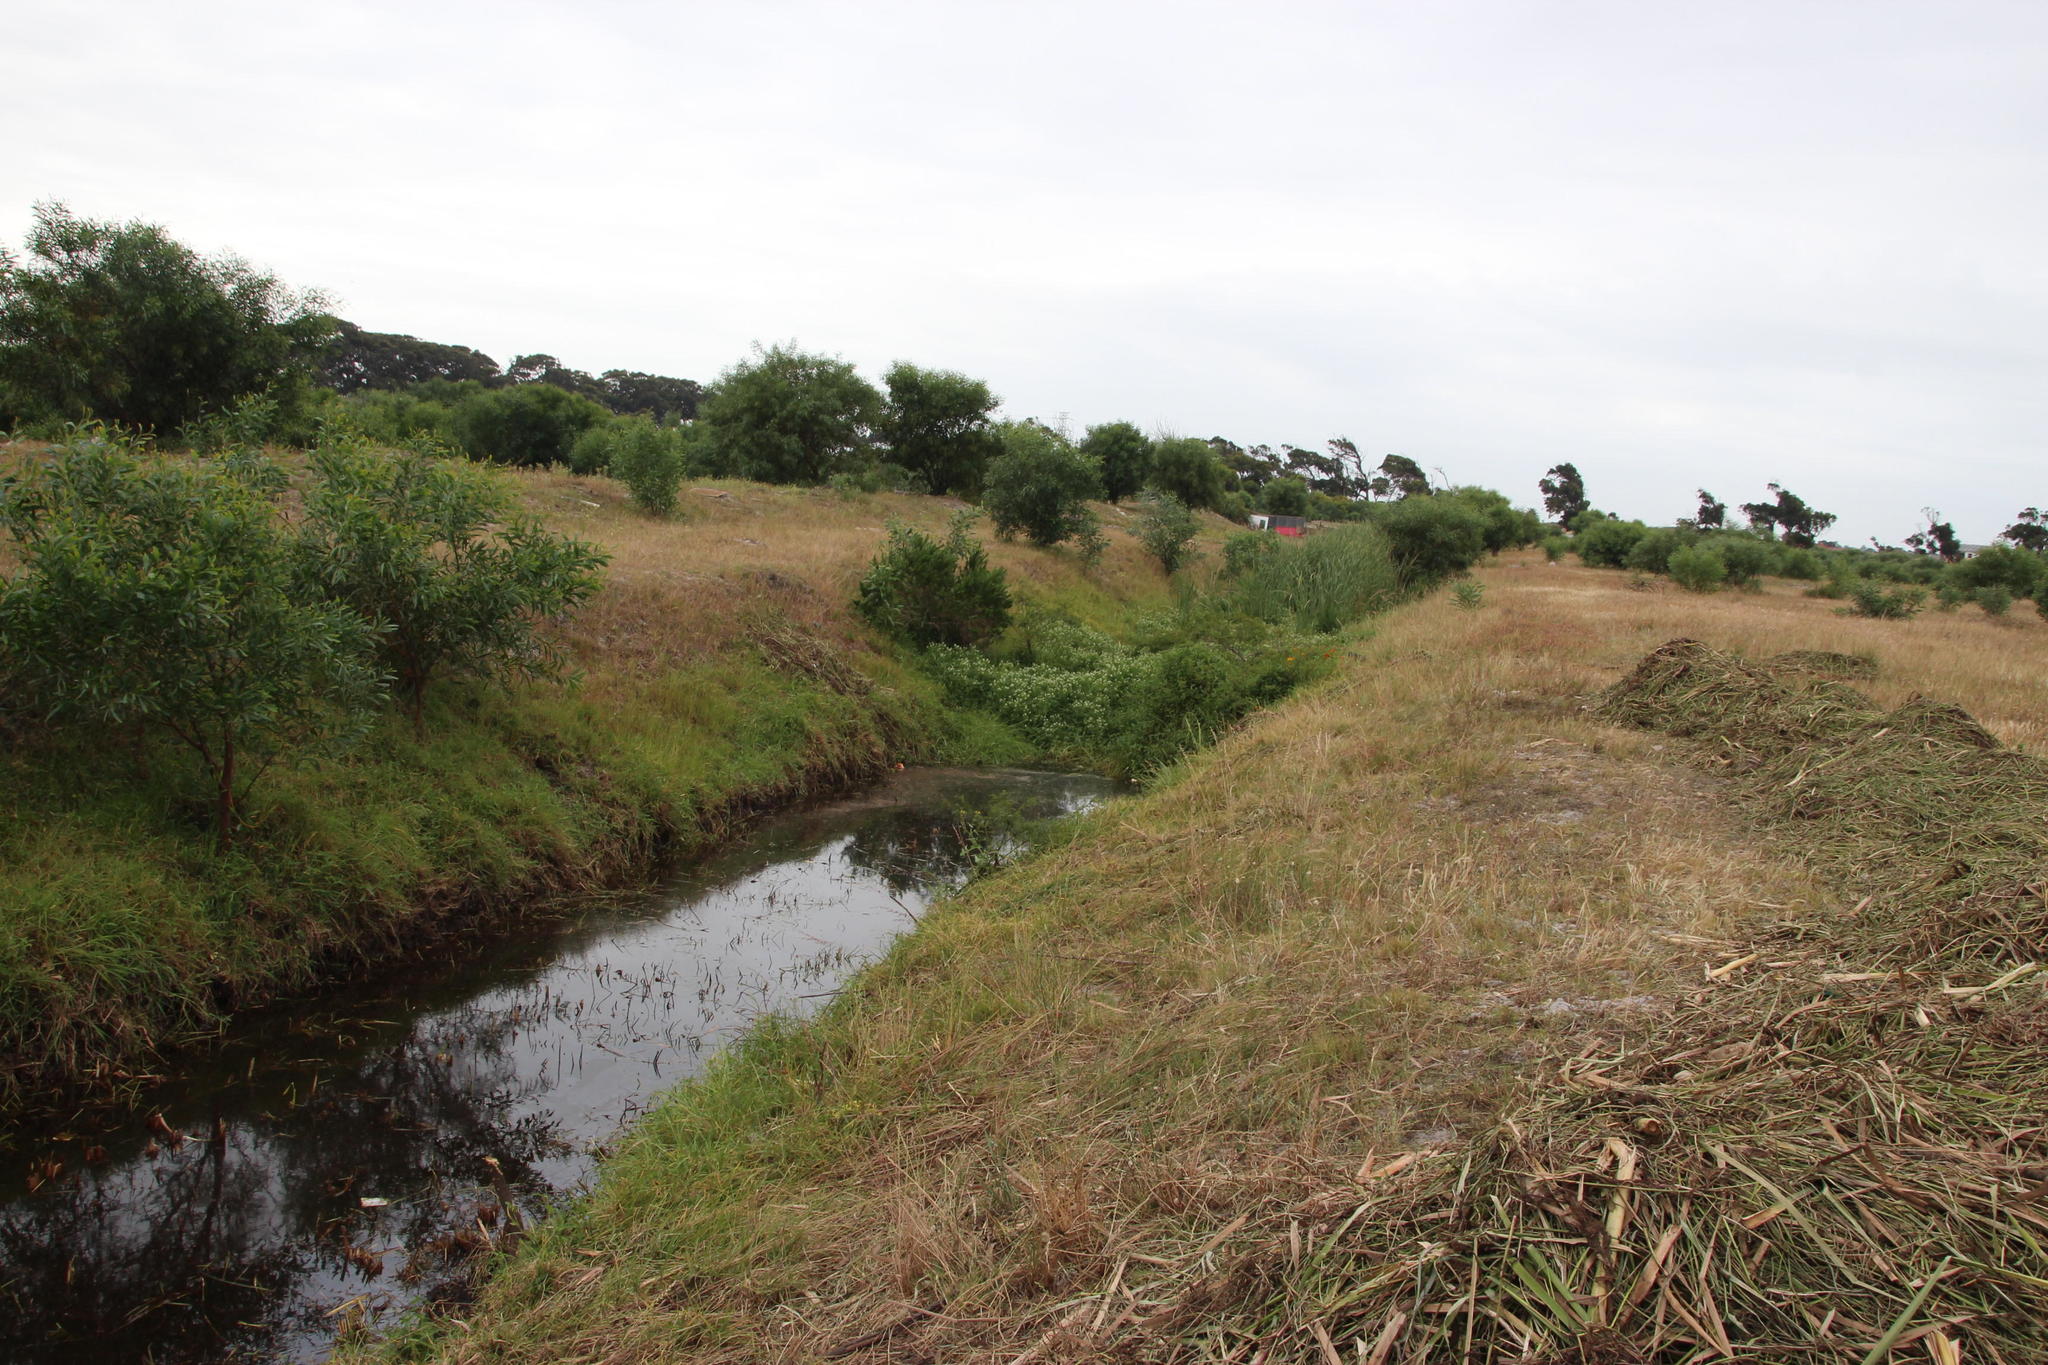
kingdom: Plantae
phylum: Tracheophyta
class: Magnoliopsida
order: Fabales
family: Fabaceae
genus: Acacia
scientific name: Acacia saligna
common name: Orange wattle
